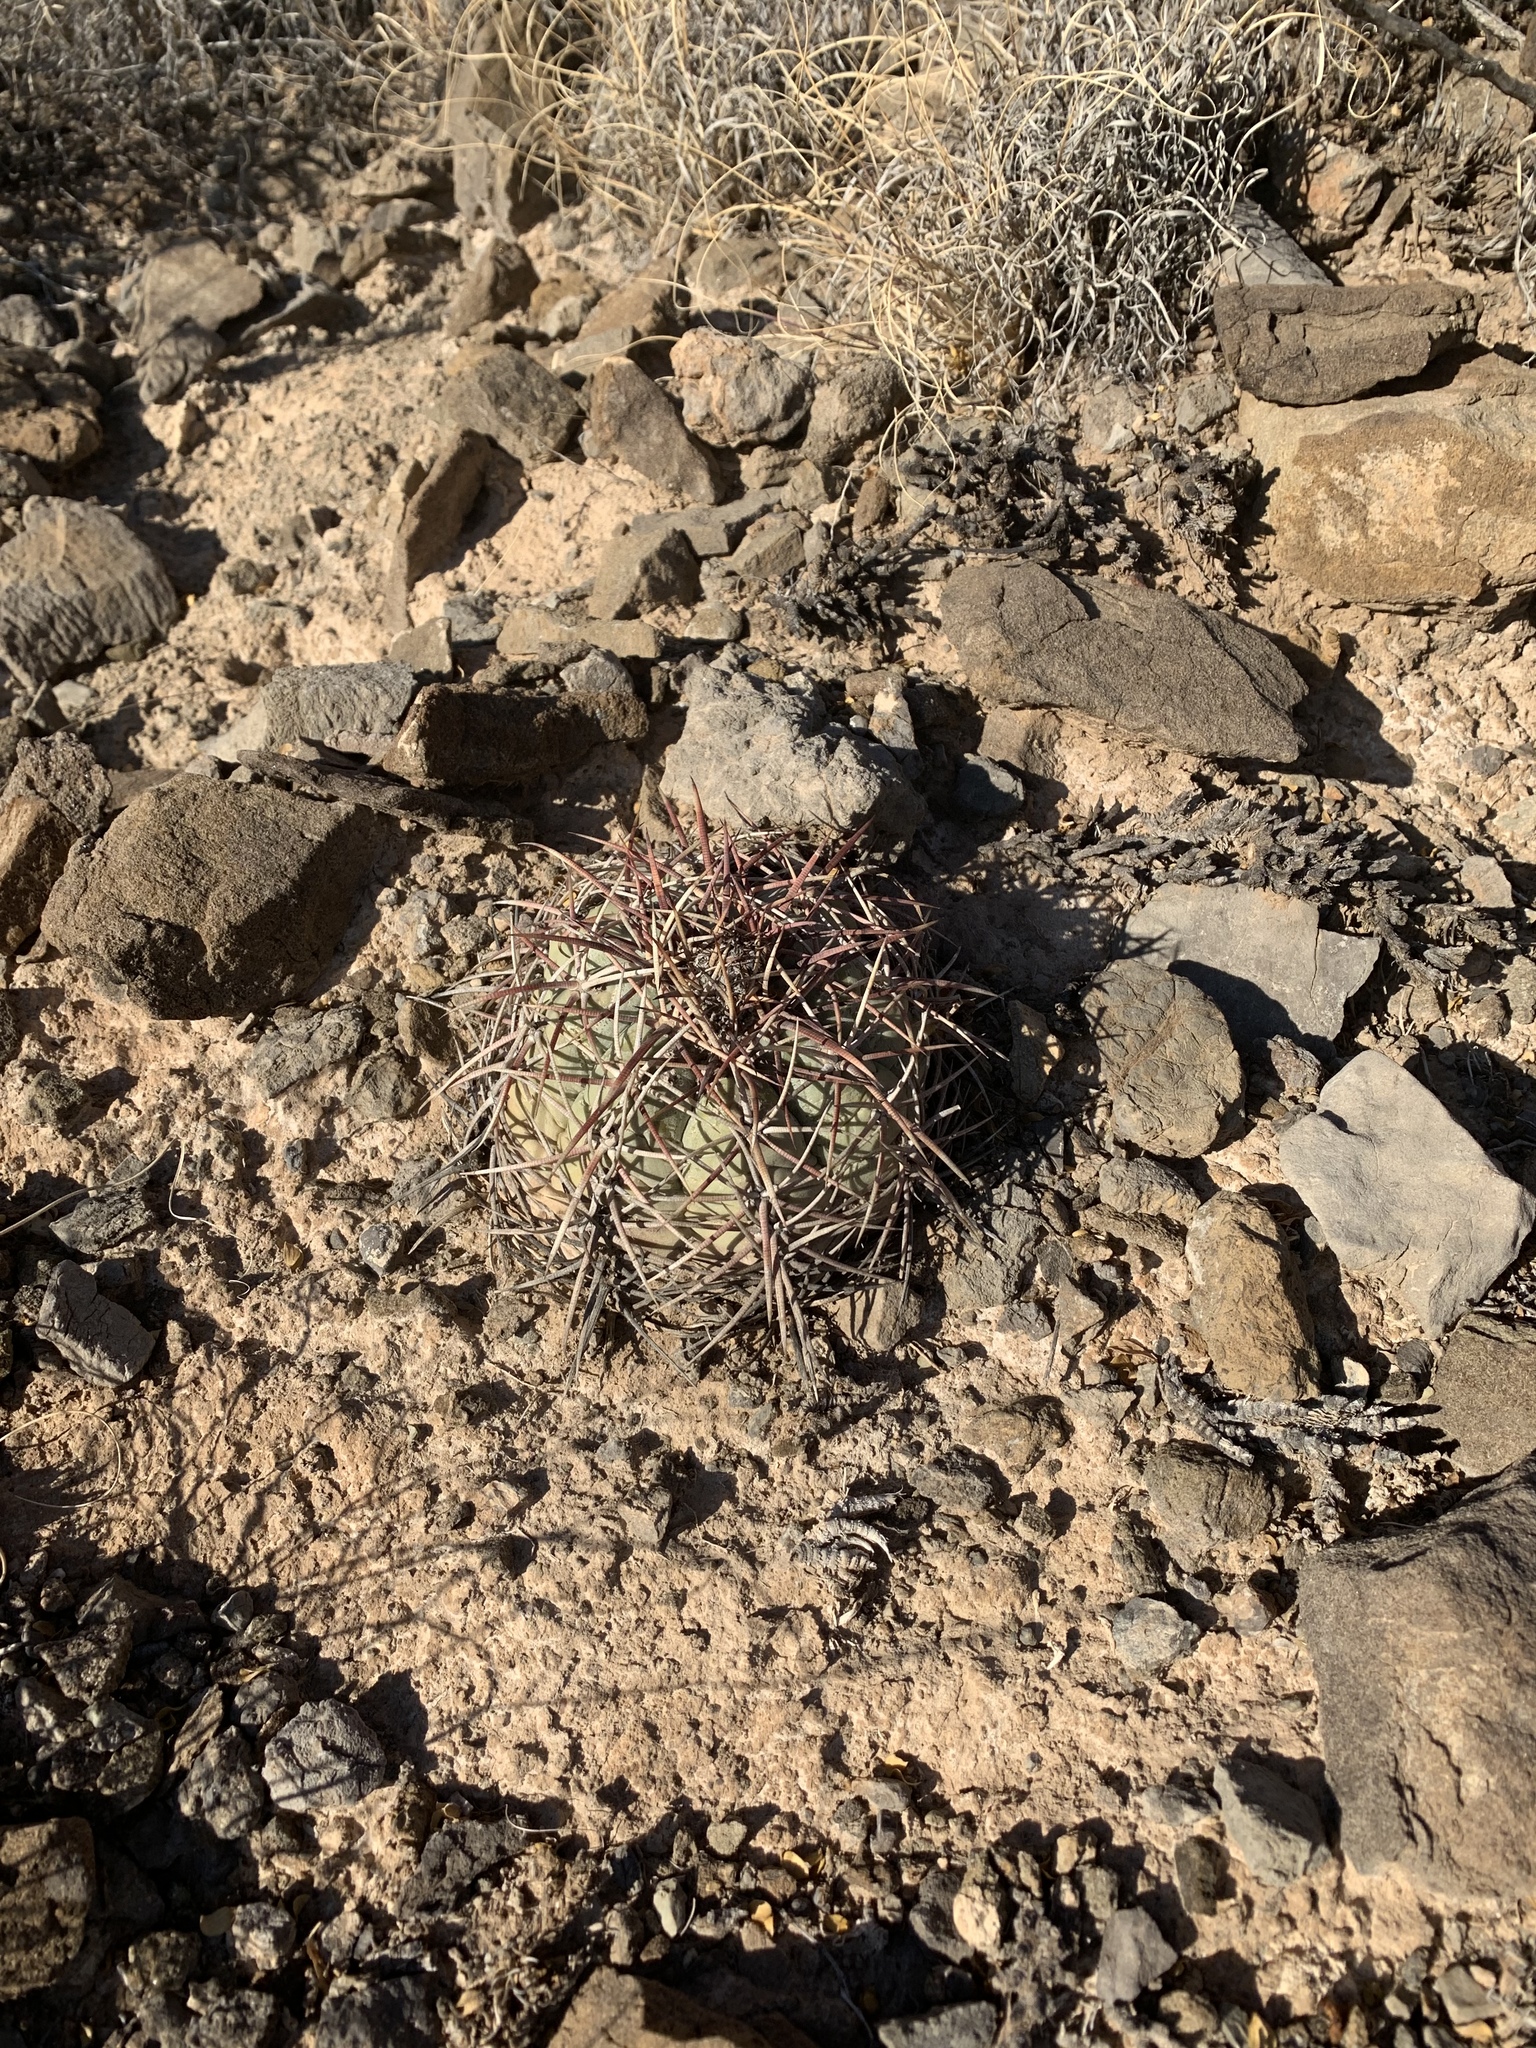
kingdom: Plantae
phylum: Tracheophyta
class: Magnoliopsida
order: Caryophyllales
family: Cactaceae
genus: Echinocactus
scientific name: Echinocactus horizonthalonius
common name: Devilshead
